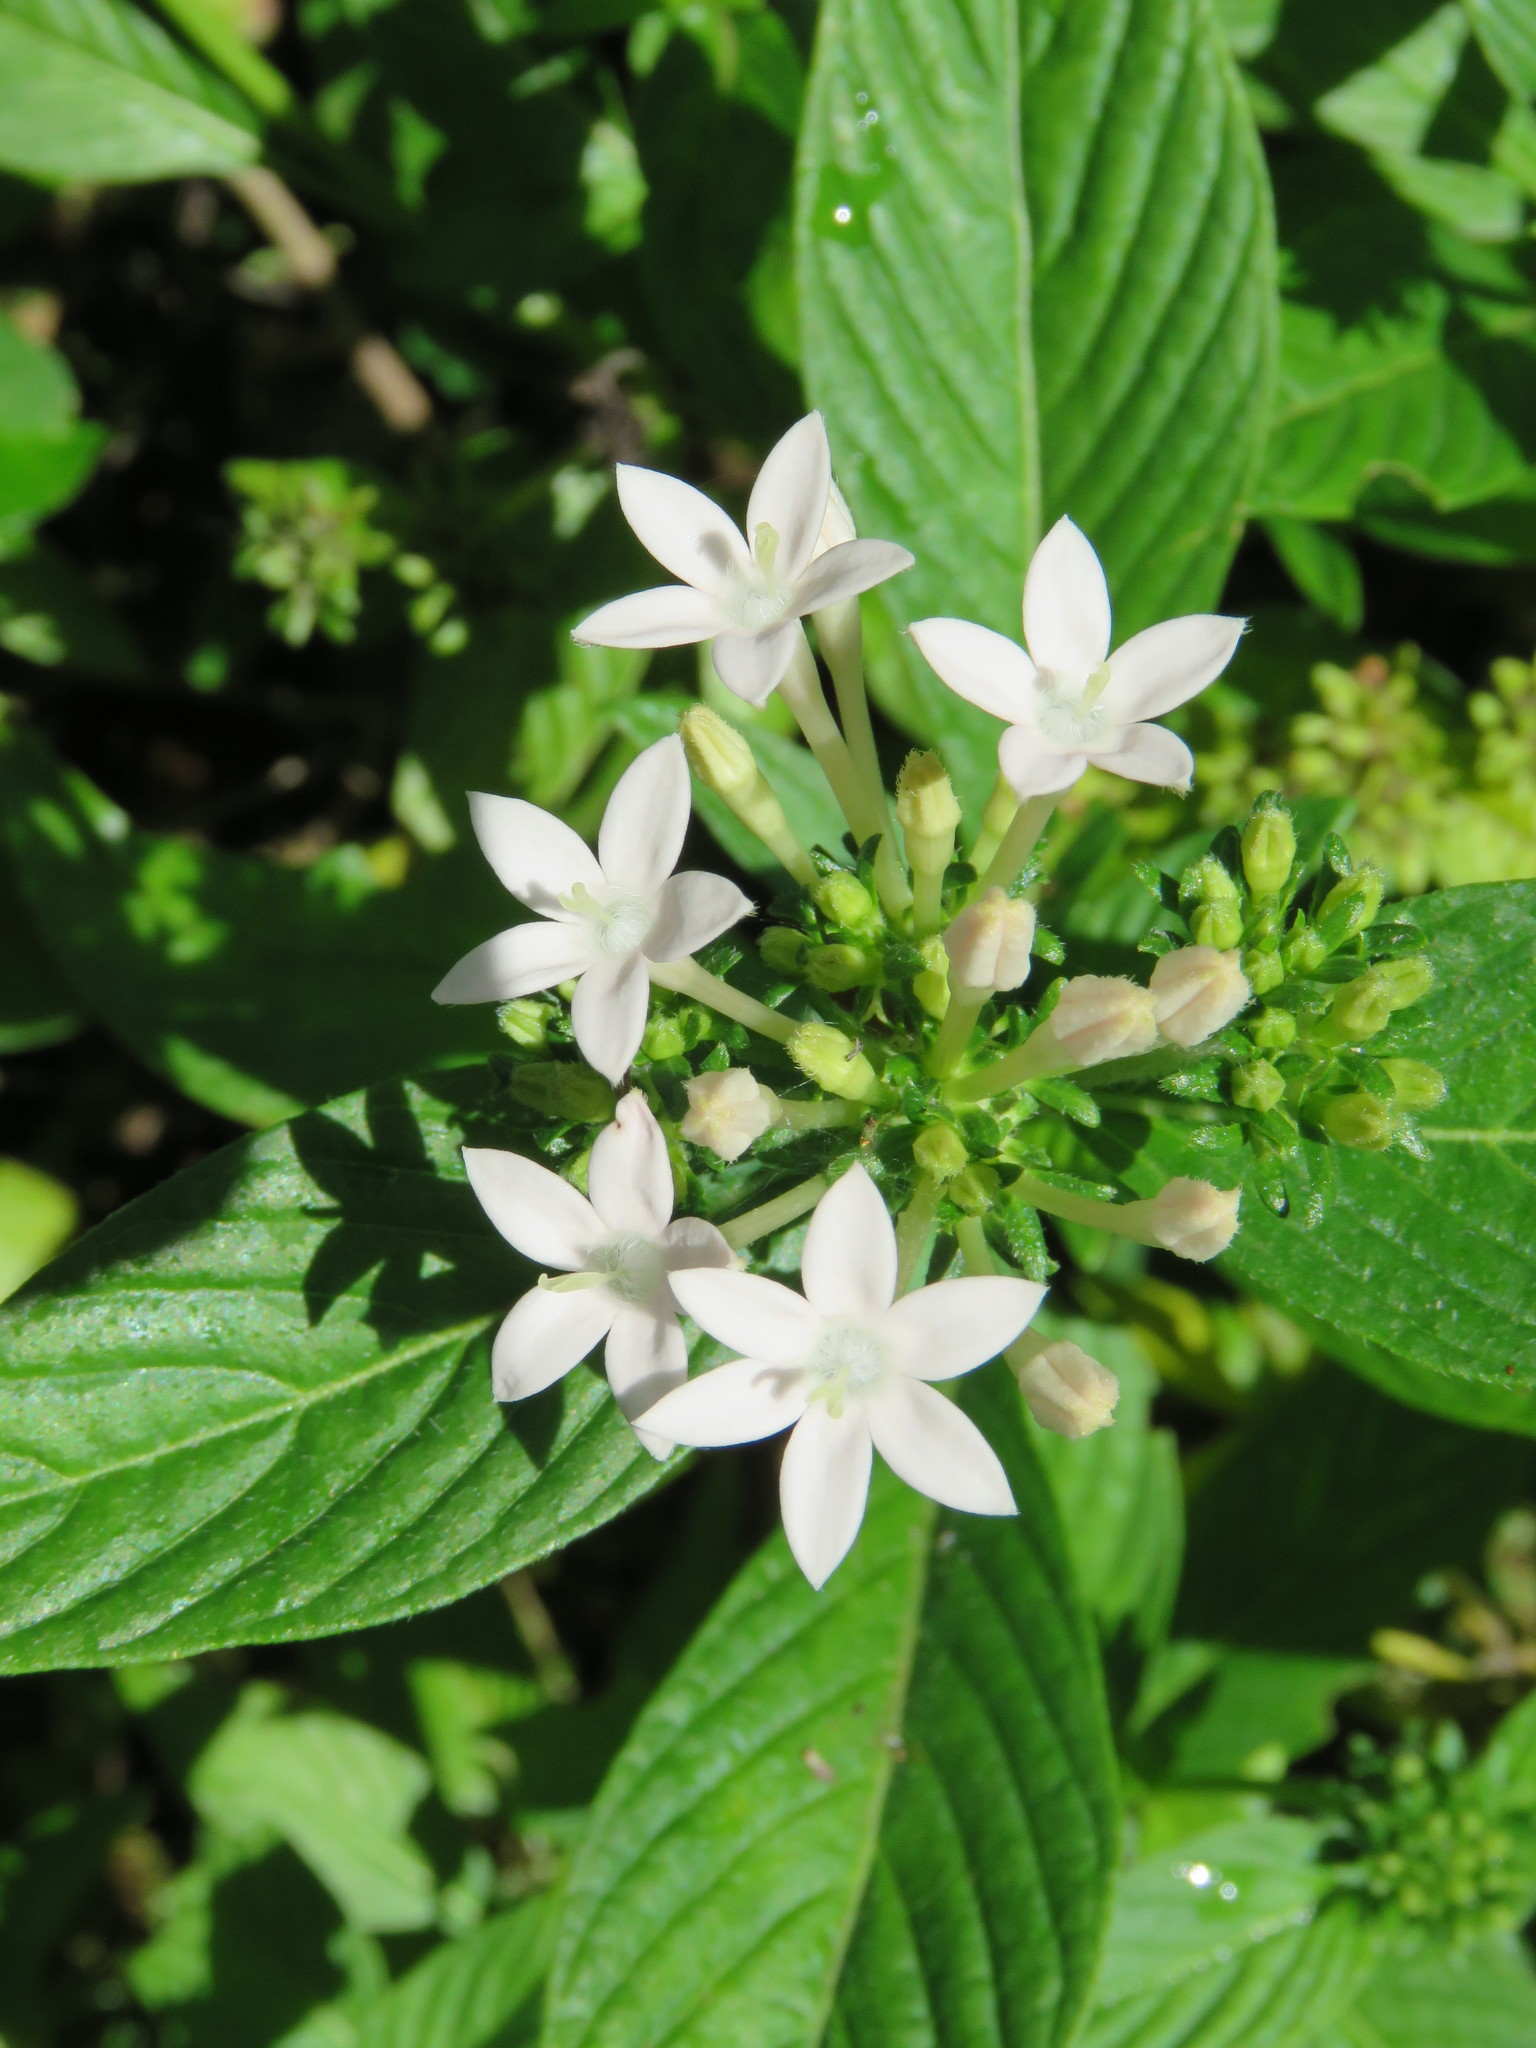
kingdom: Plantae
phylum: Tracheophyta
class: Magnoliopsida
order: Gentianales
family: Rubiaceae
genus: Pentas
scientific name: Pentas lanceolata
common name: Egyptian starcluster
